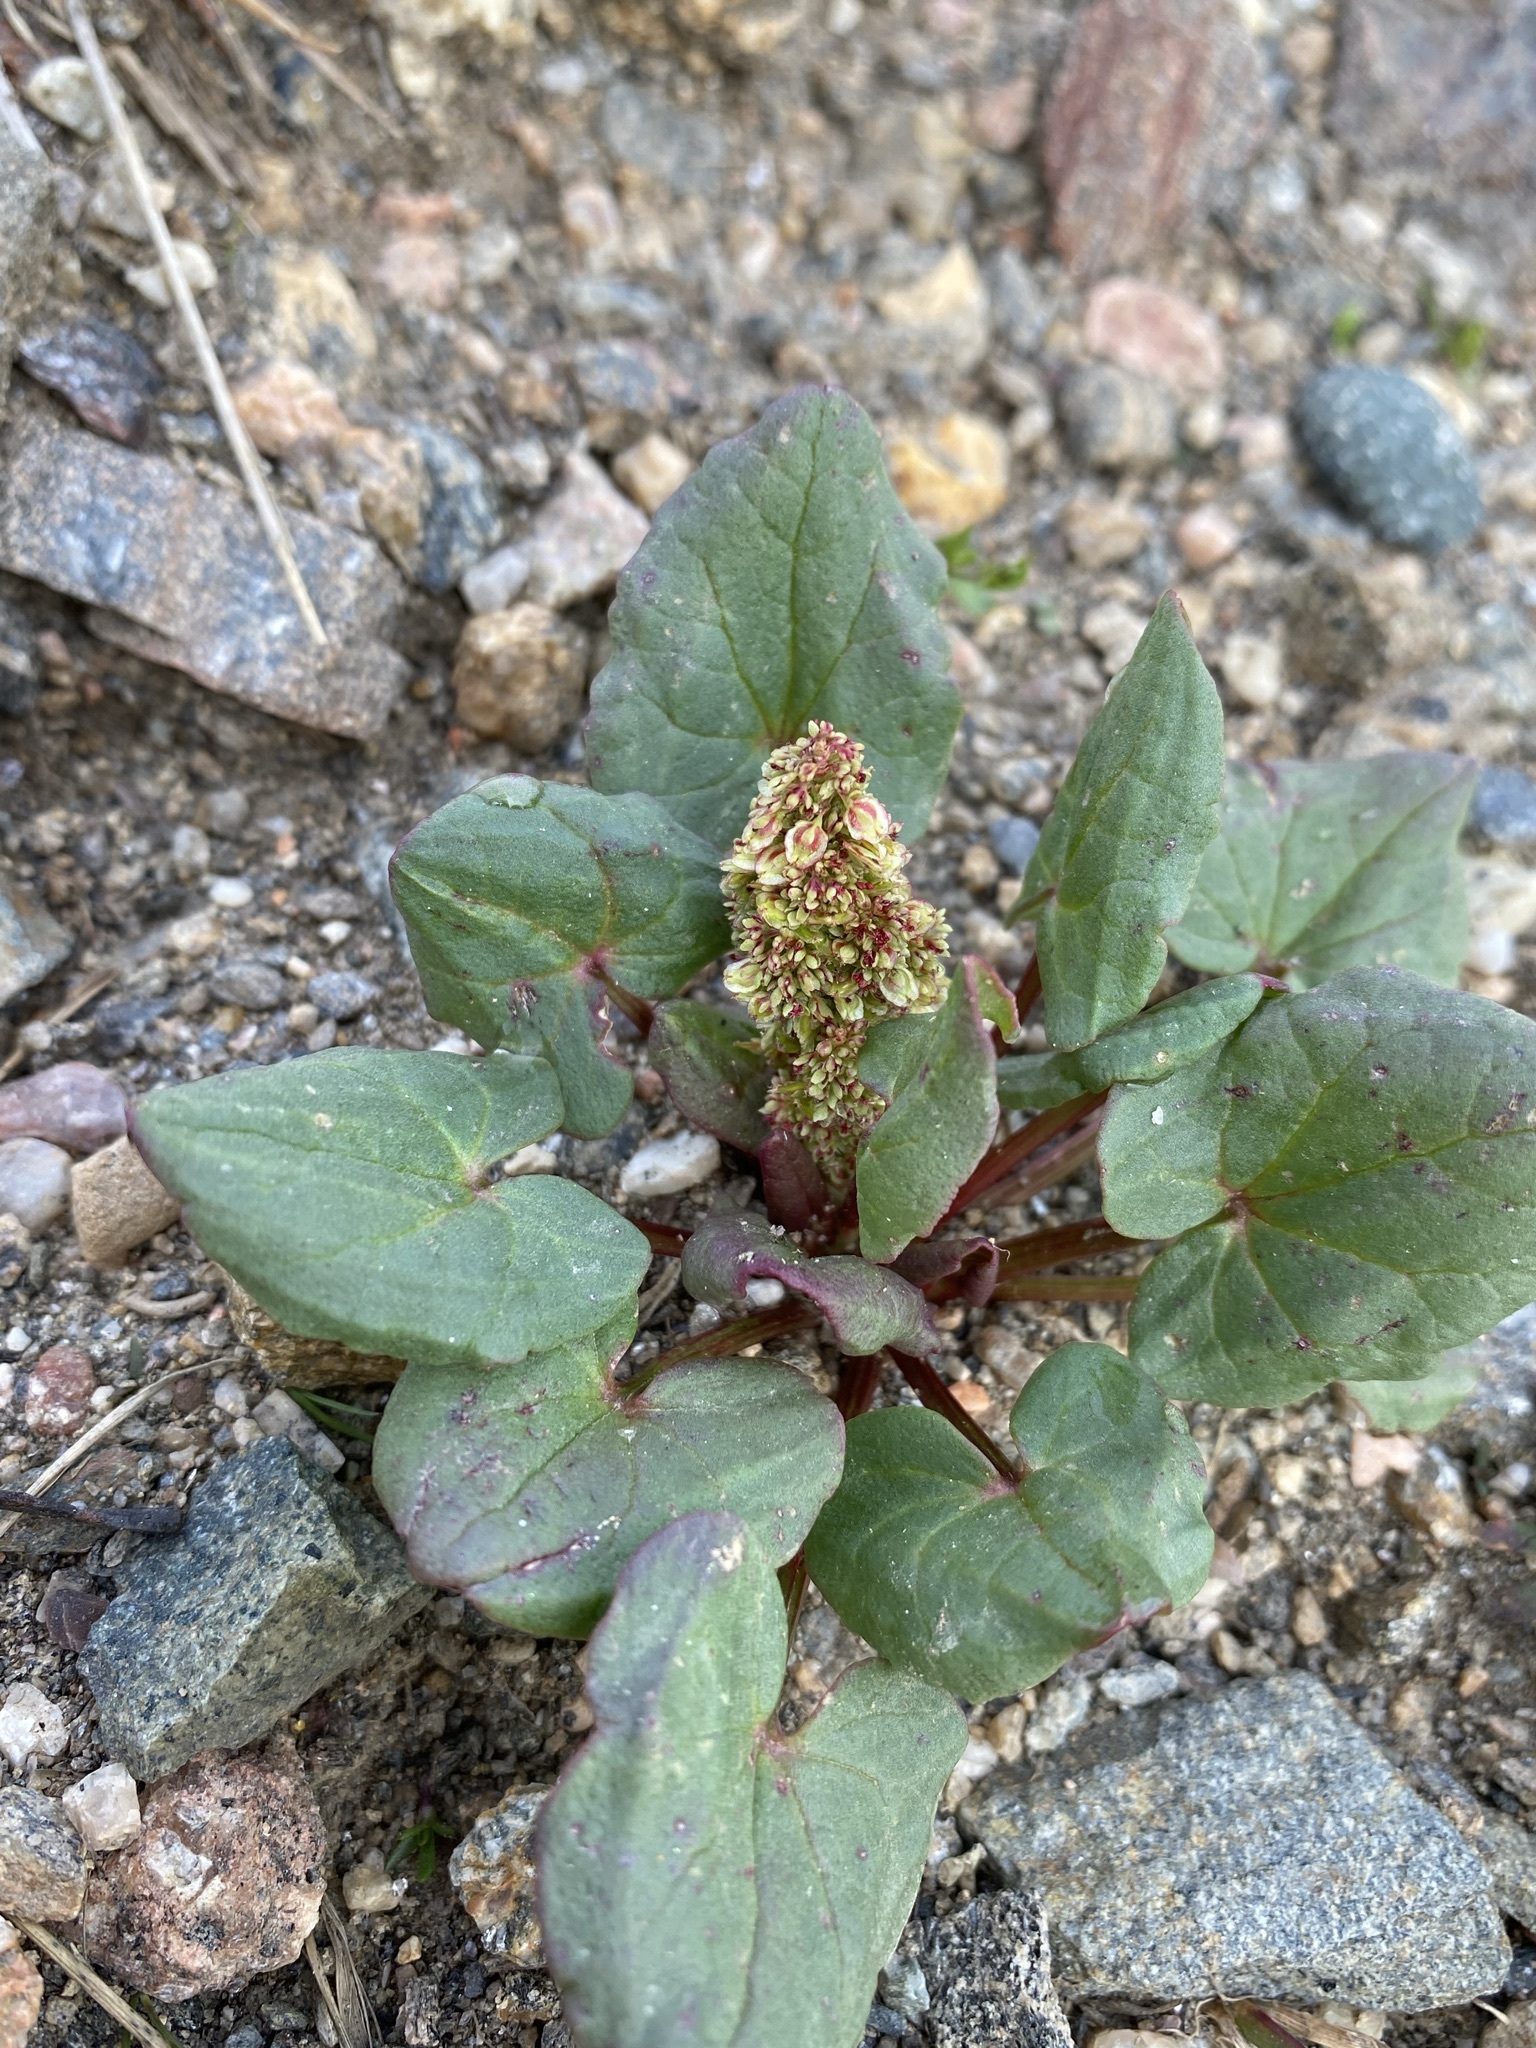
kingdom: Plantae
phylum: Tracheophyta
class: Magnoliopsida
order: Caryophyllales
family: Polygonaceae
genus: Oxyria
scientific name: Oxyria digyna
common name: Alpine mountain-sorrel
